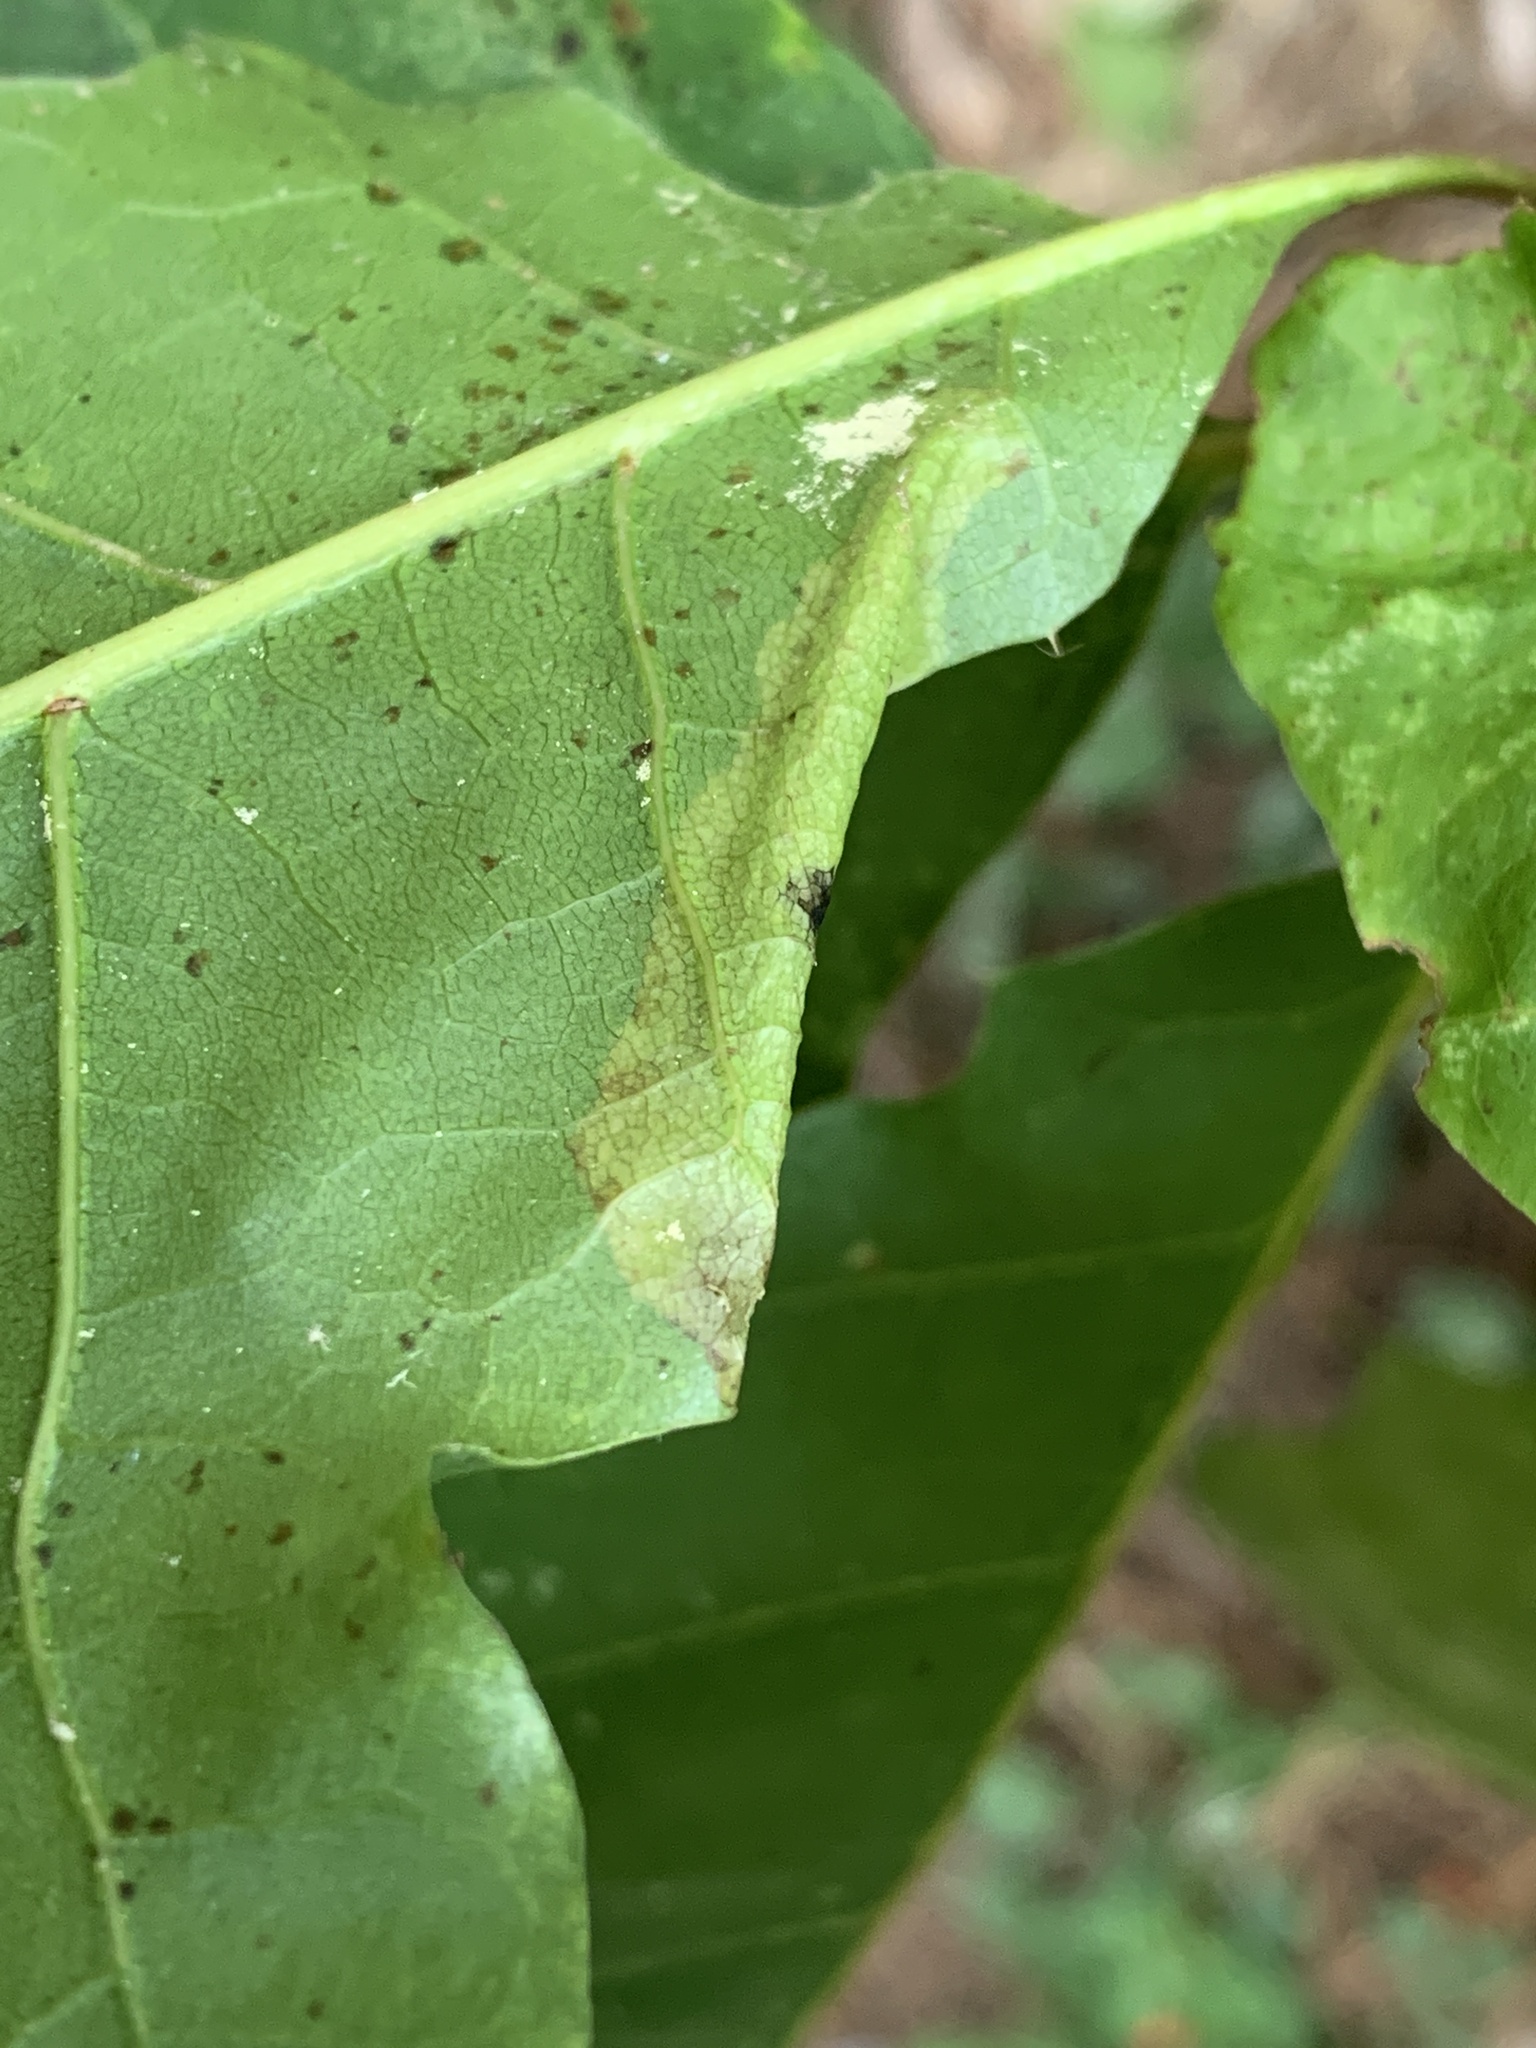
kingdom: Animalia
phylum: Arthropoda
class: Insecta
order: Lepidoptera
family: Tischeriidae
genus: Coptotriche
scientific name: Coptotriche citrinipennella
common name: The golden sweeper
